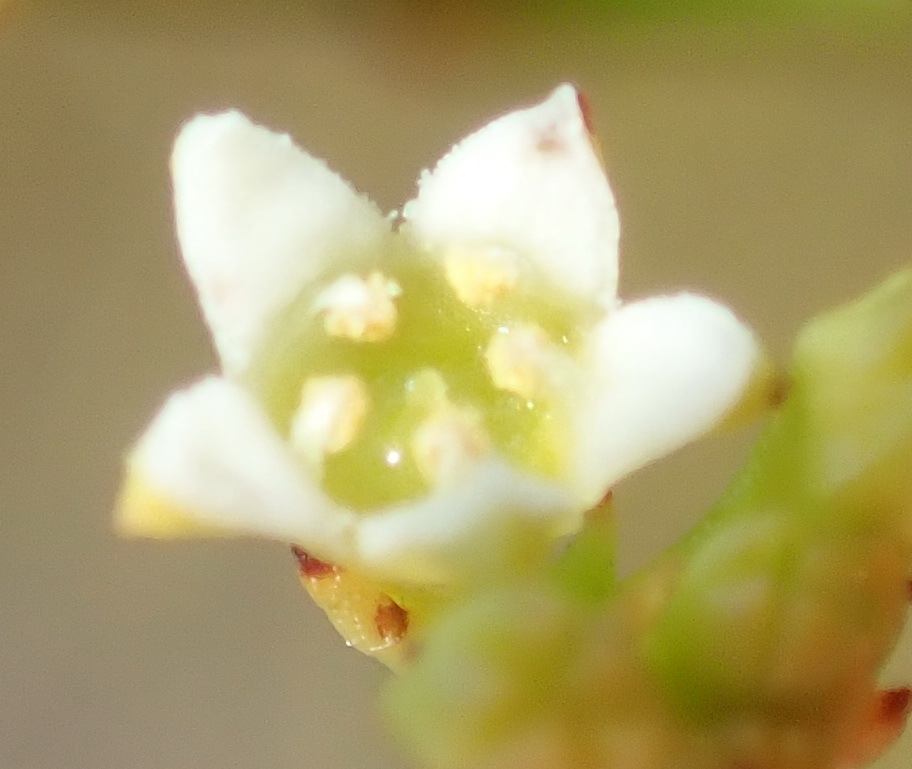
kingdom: Plantae
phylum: Tracheophyta
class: Magnoliopsida
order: Santalales
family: Thesiaceae
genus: Thesium
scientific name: Thesium virgatum
